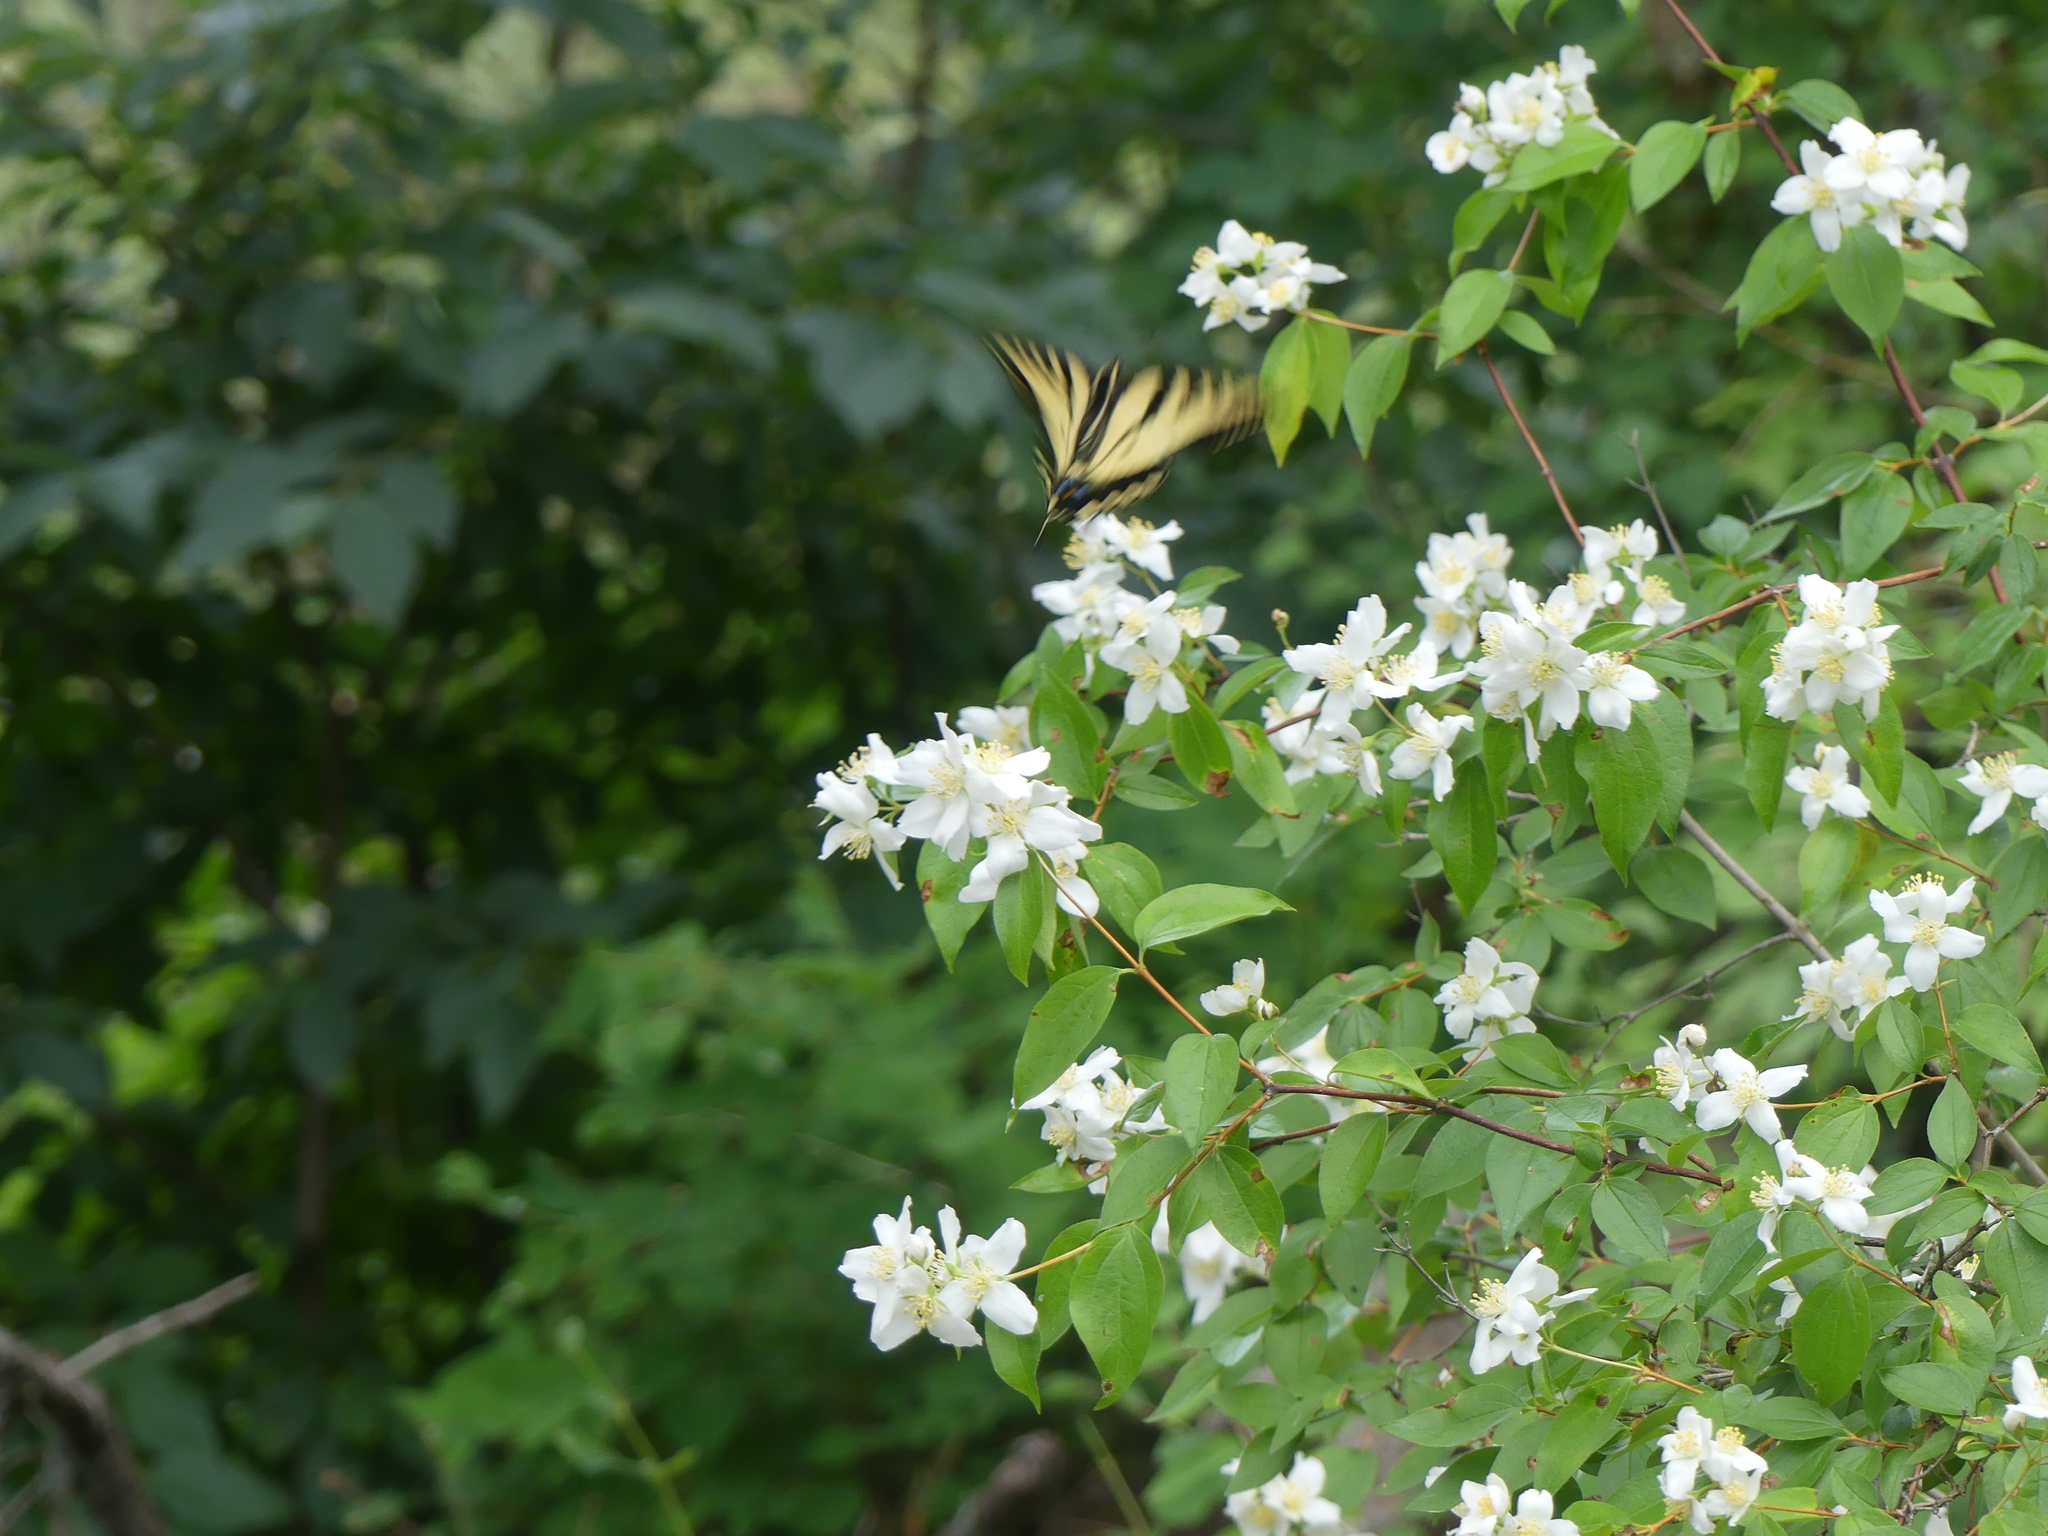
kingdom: Animalia
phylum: Arthropoda
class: Insecta
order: Lepidoptera
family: Papilionidae
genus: Papilio
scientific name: Papilio rutulus
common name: Western tiger swallowtail
